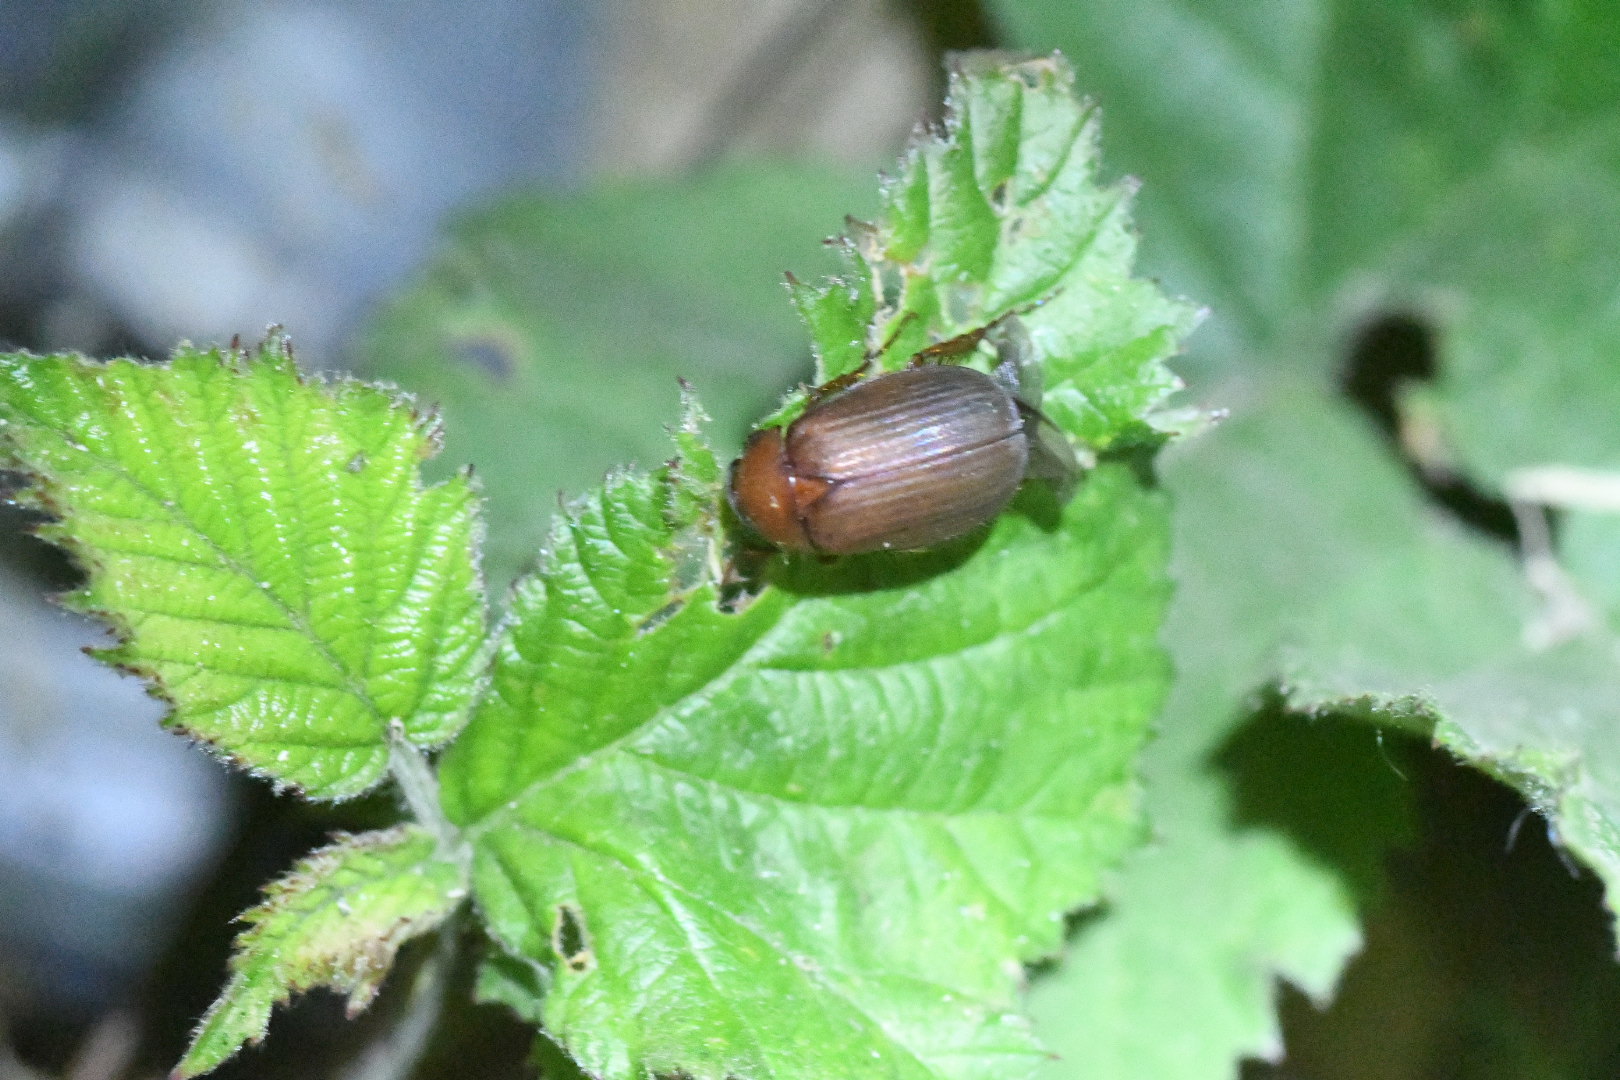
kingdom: Animalia
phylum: Arthropoda
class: Insecta
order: Coleoptera
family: Scarabaeidae
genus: Serica
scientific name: Serica brunnea
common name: Brown chafer
